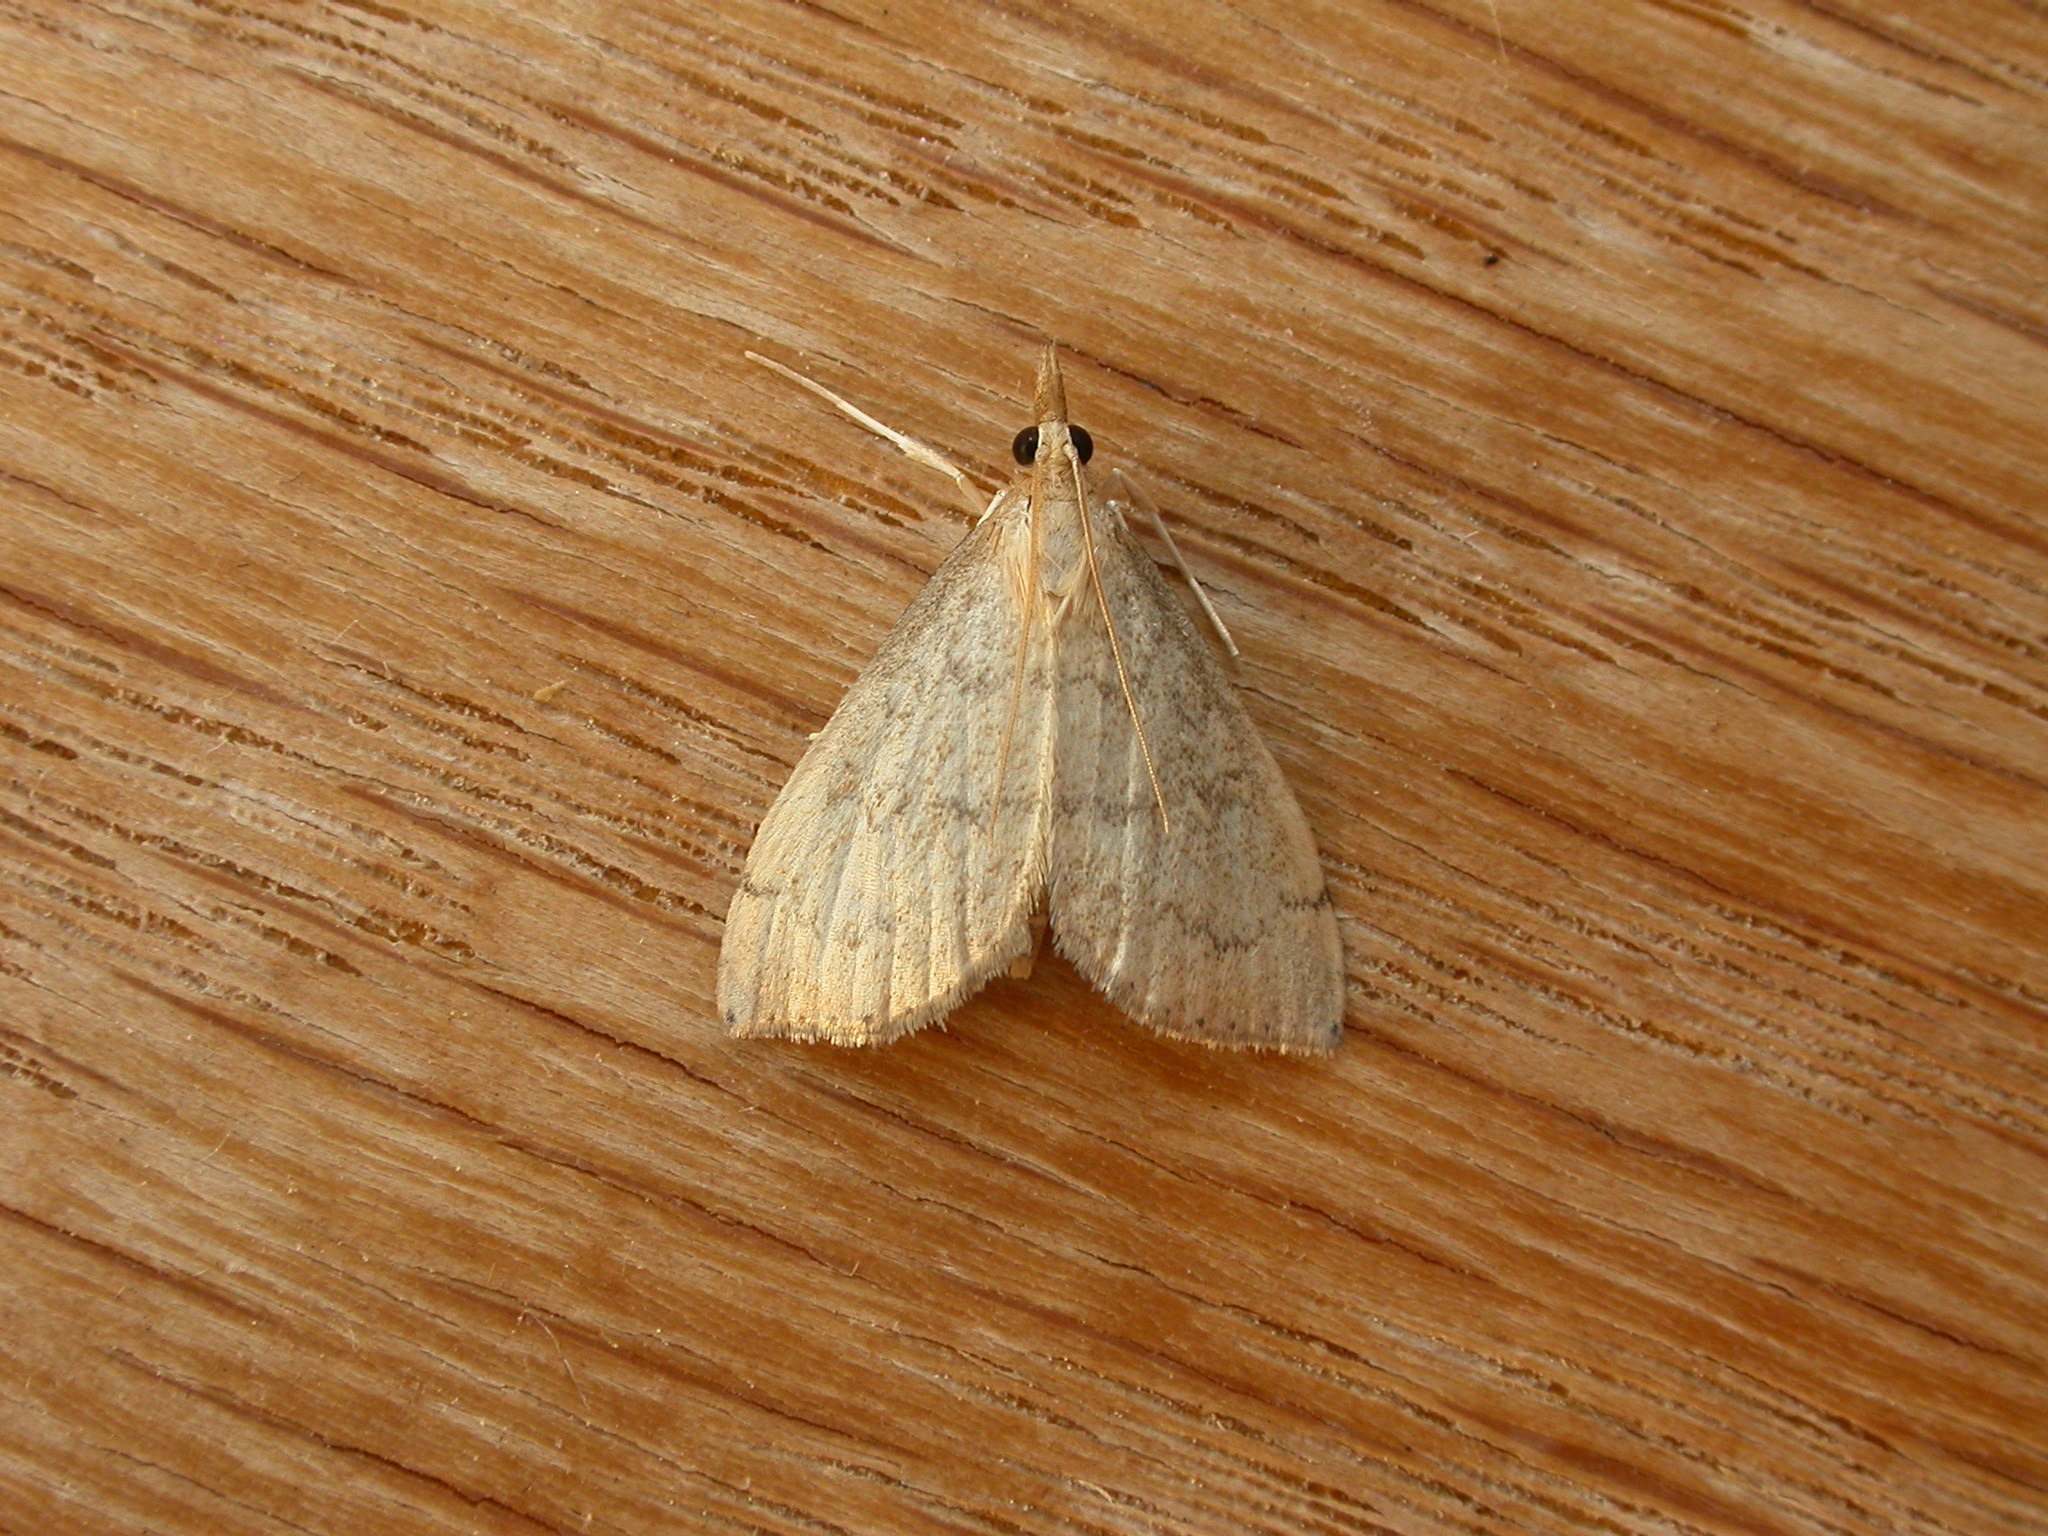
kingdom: Animalia
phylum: Arthropoda
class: Insecta
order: Lepidoptera
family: Crambidae
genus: Metasia
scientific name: Metasia dicealis
